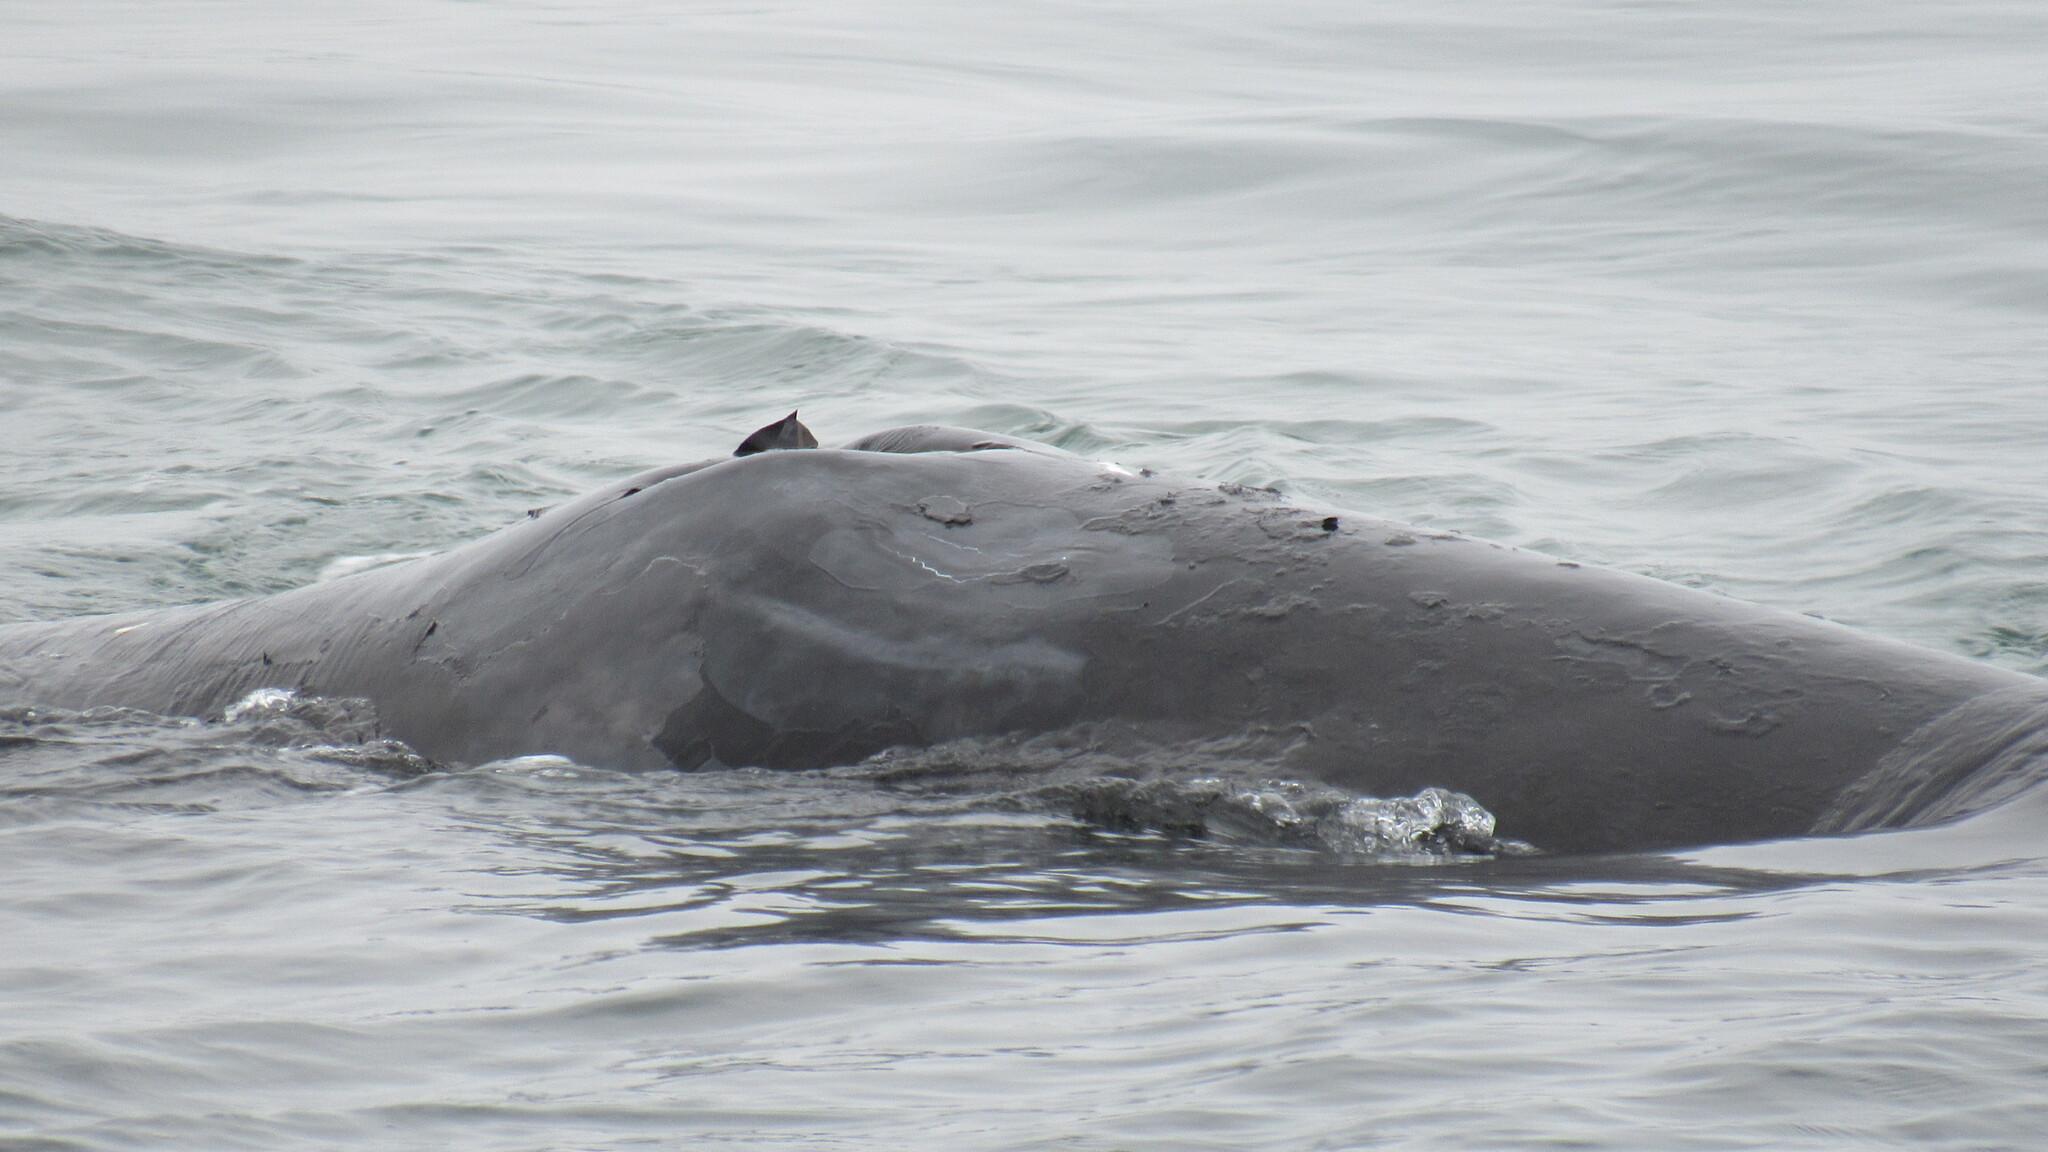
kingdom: Animalia
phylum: Chordata
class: Mammalia
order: Cetacea
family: Balaenidae
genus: Balaena
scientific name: Balaena mysticetus
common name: Bowhead whale
